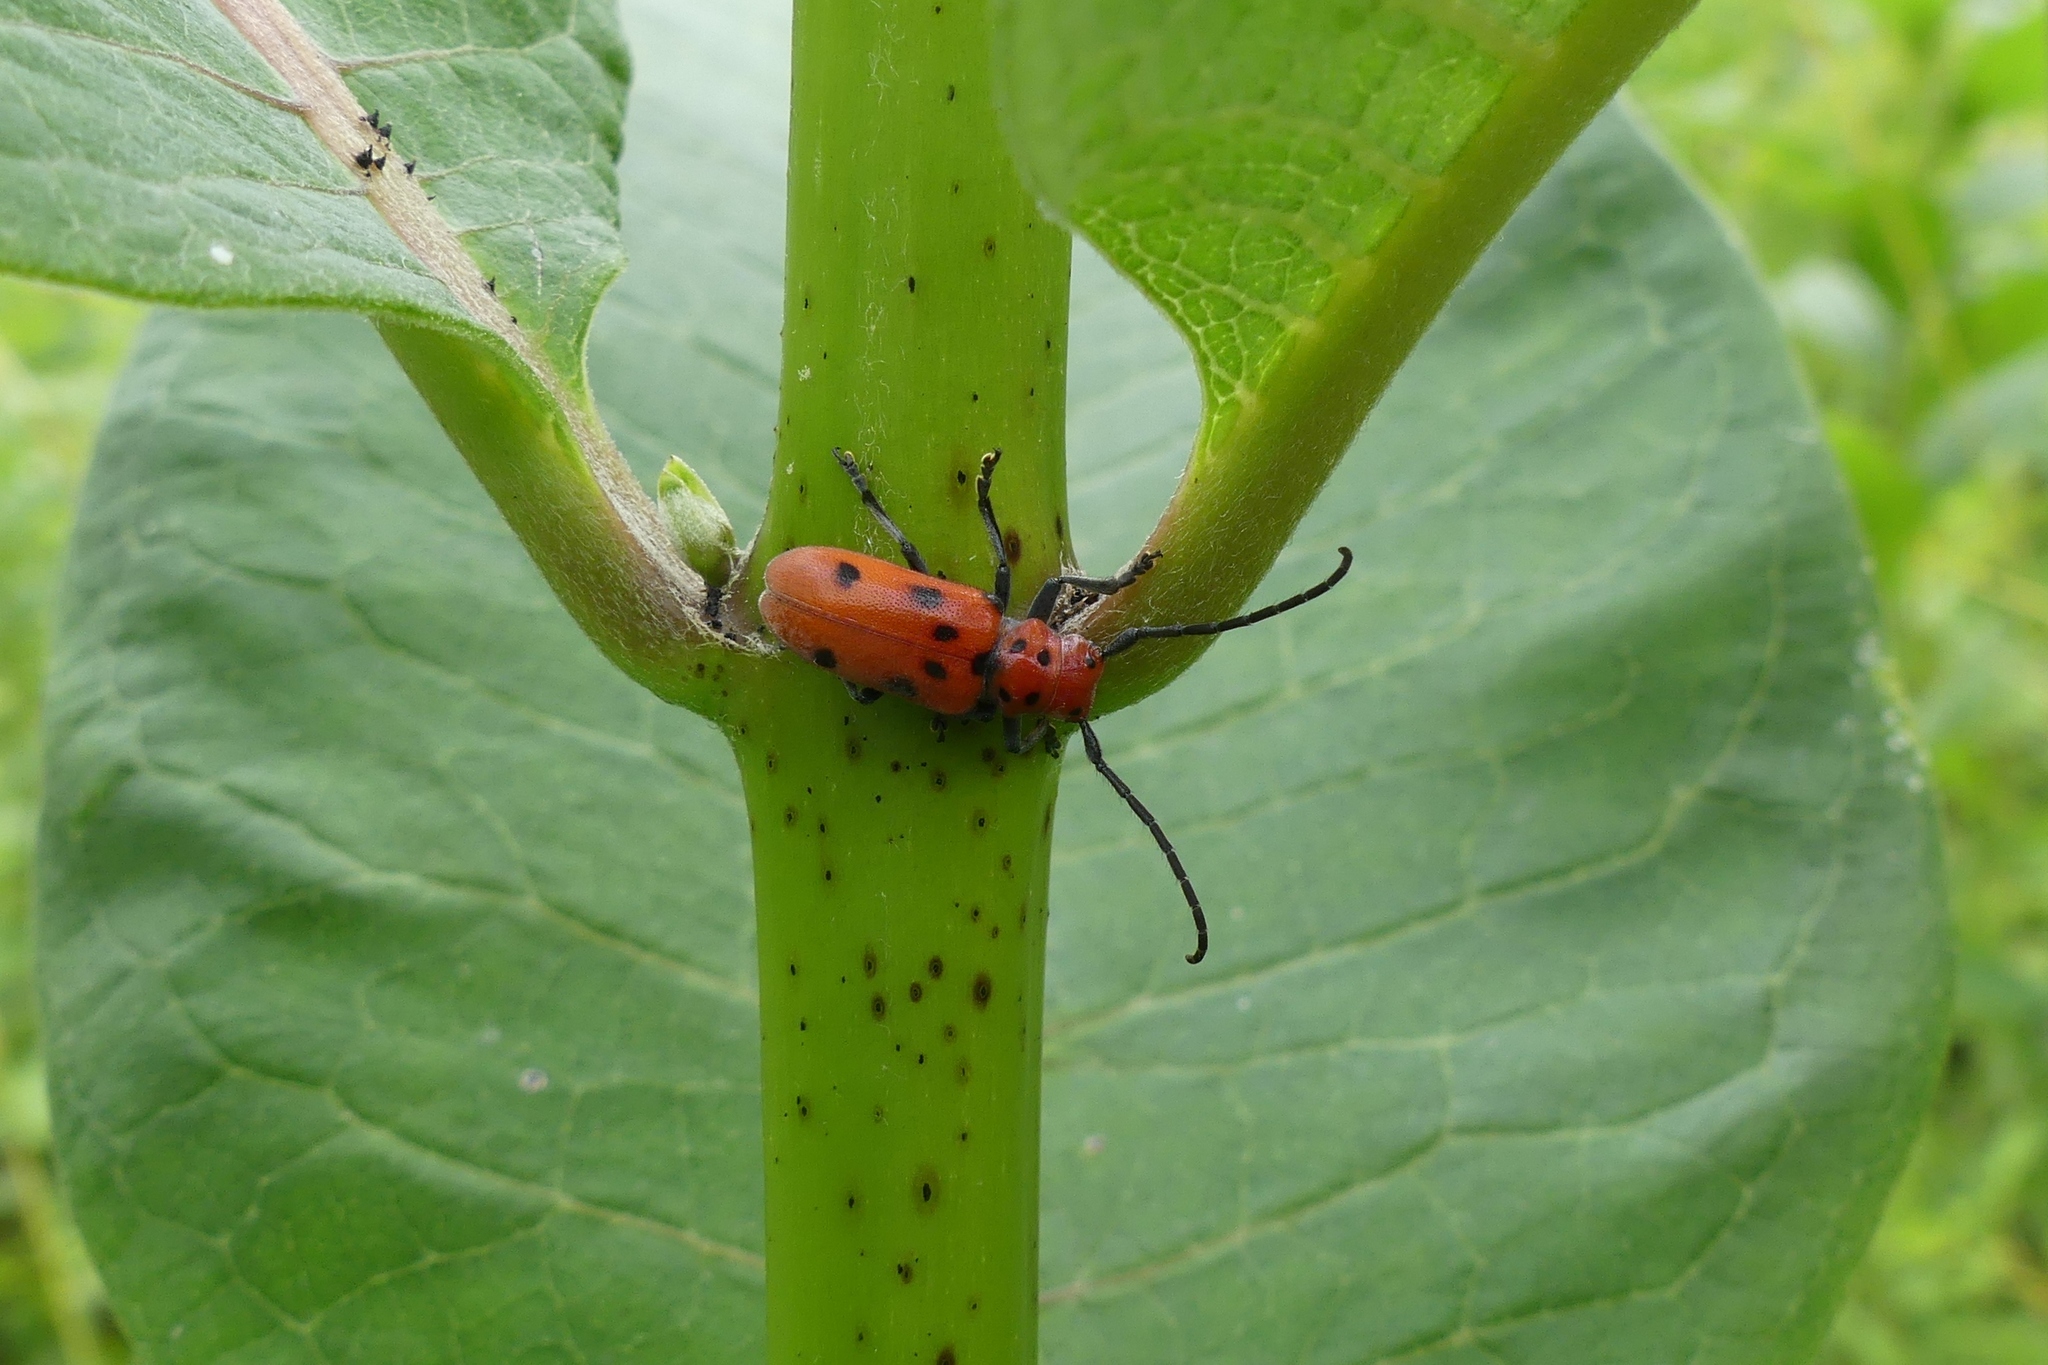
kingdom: Animalia
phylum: Arthropoda
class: Insecta
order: Coleoptera
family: Cerambycidae
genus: Tetraopes
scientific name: Tetraopes tetrophthalmus
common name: Red milkweed beetle
